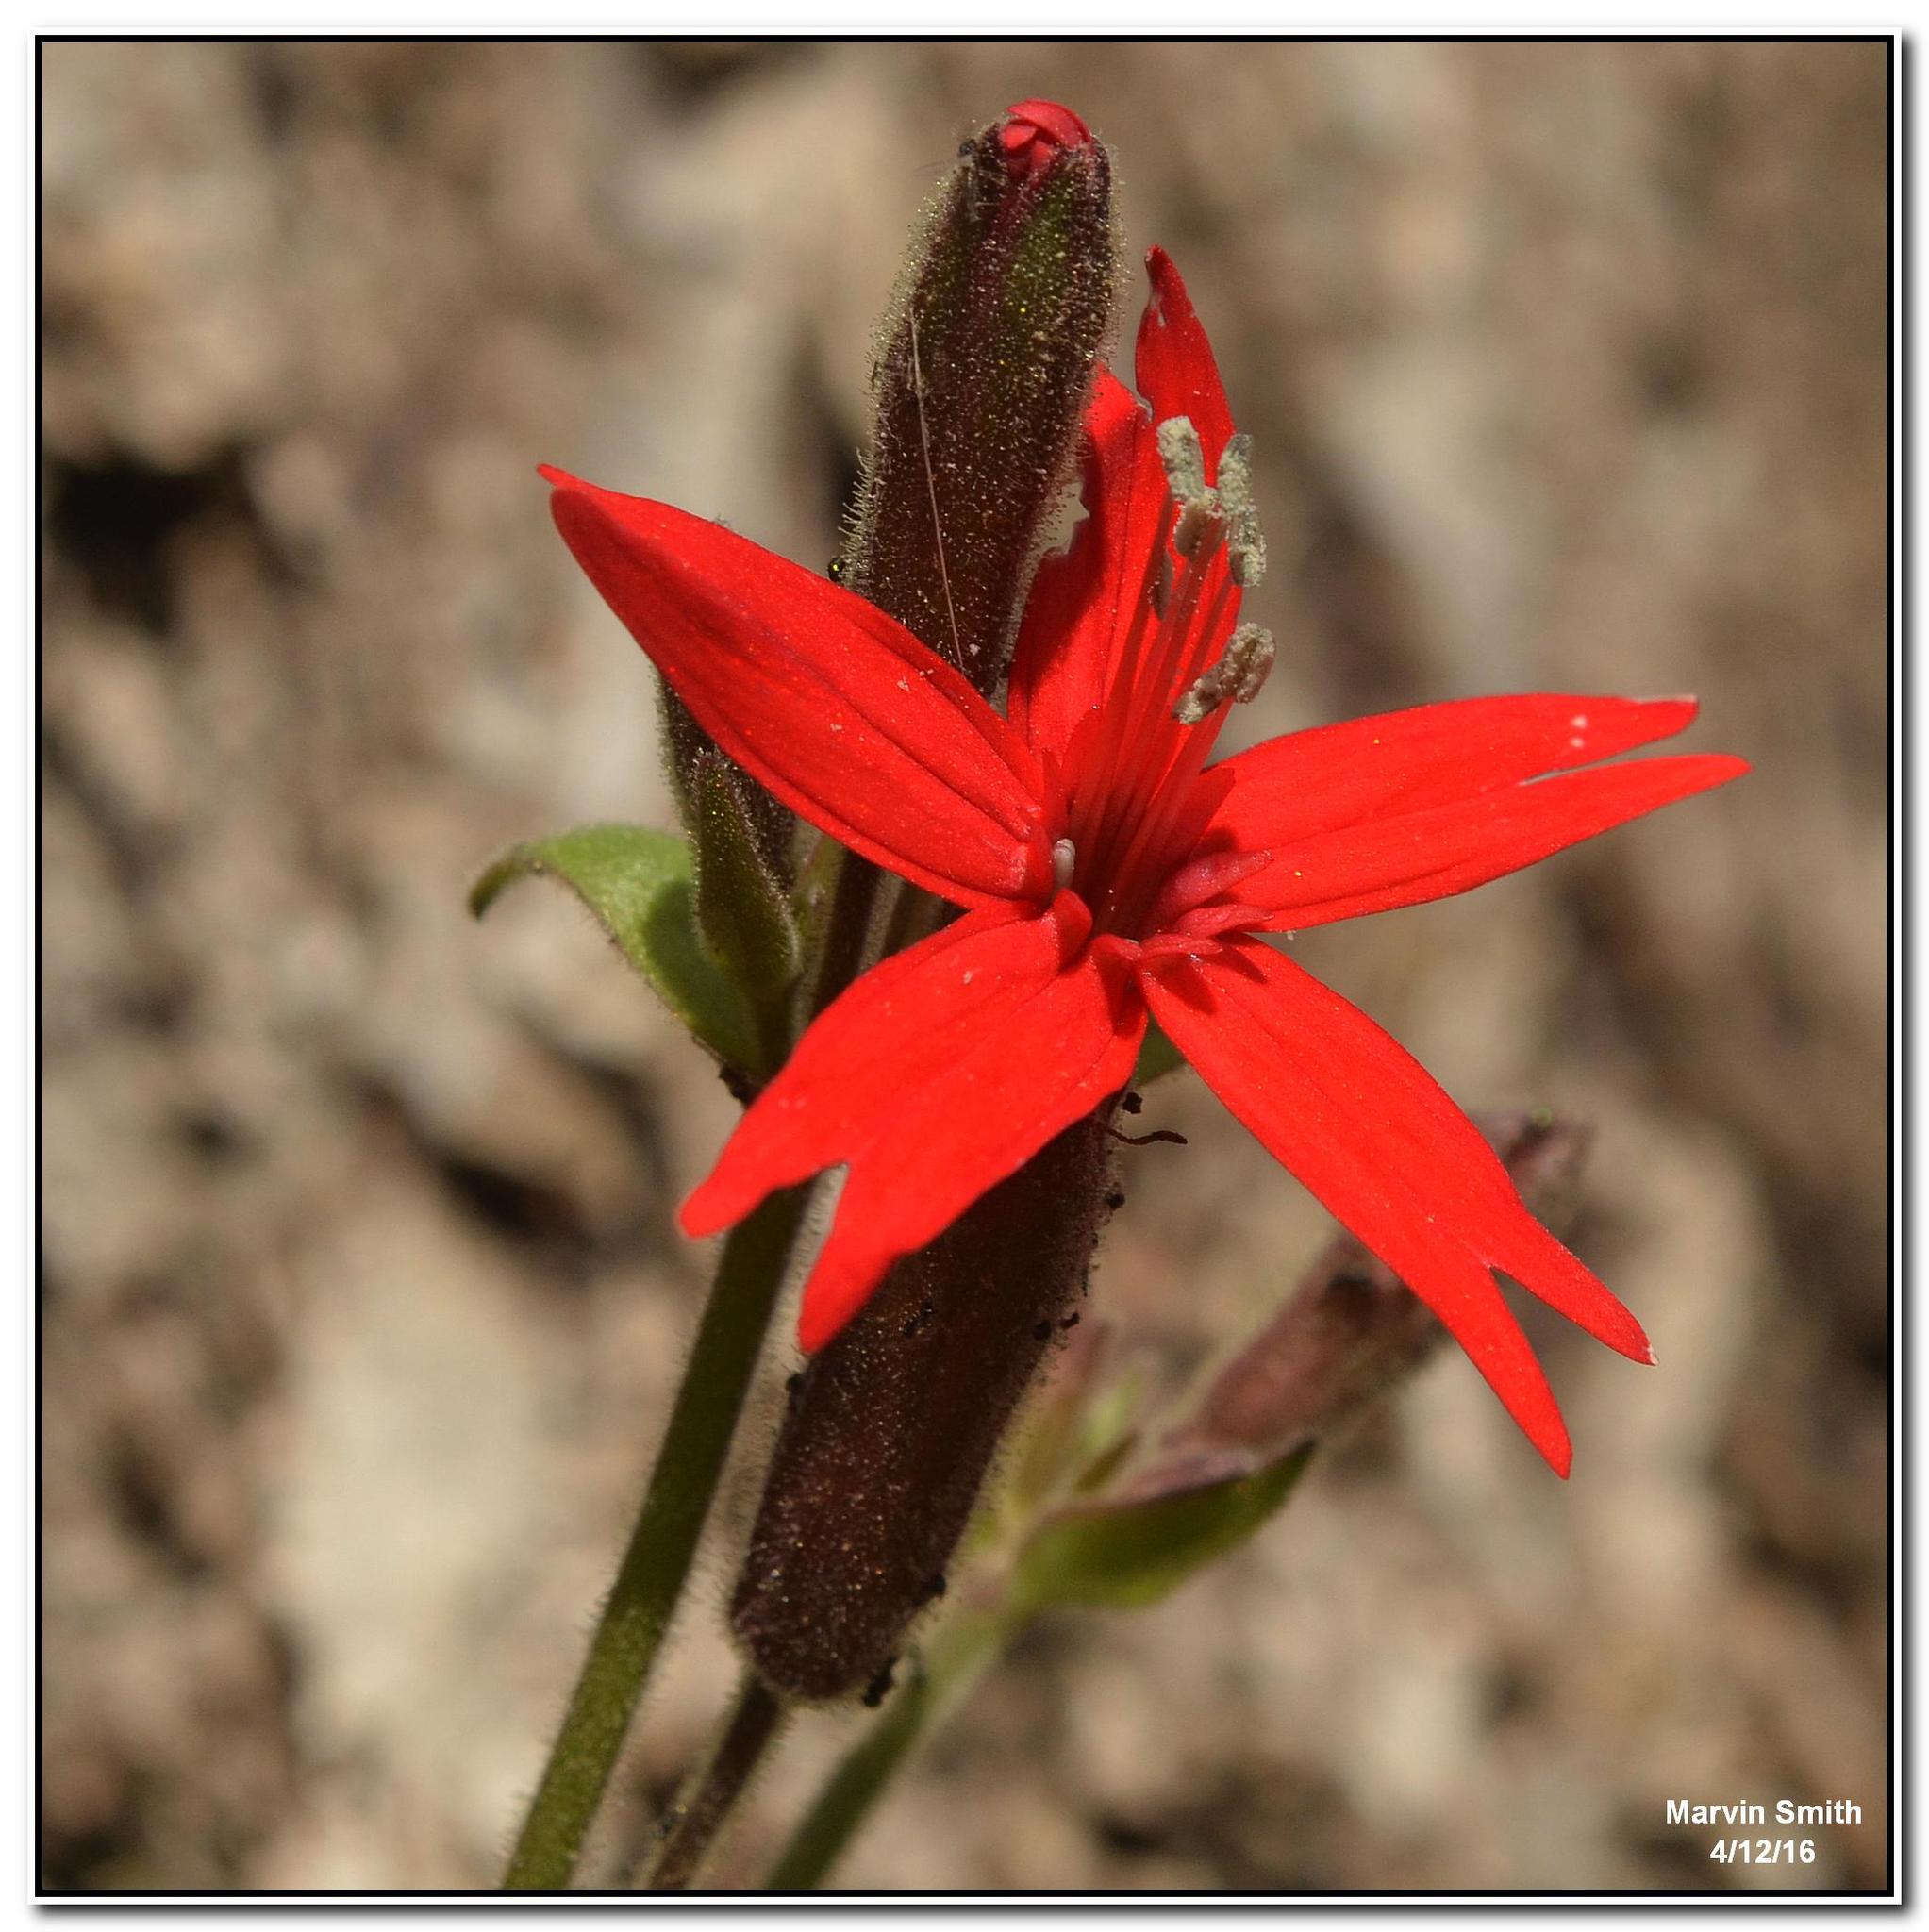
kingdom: Plantae
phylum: Tracheophyta
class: Magnoliopsida
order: Caryophyllales
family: Caryophyllaceae
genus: Silene
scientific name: Silene virginica
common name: Fire-pink
